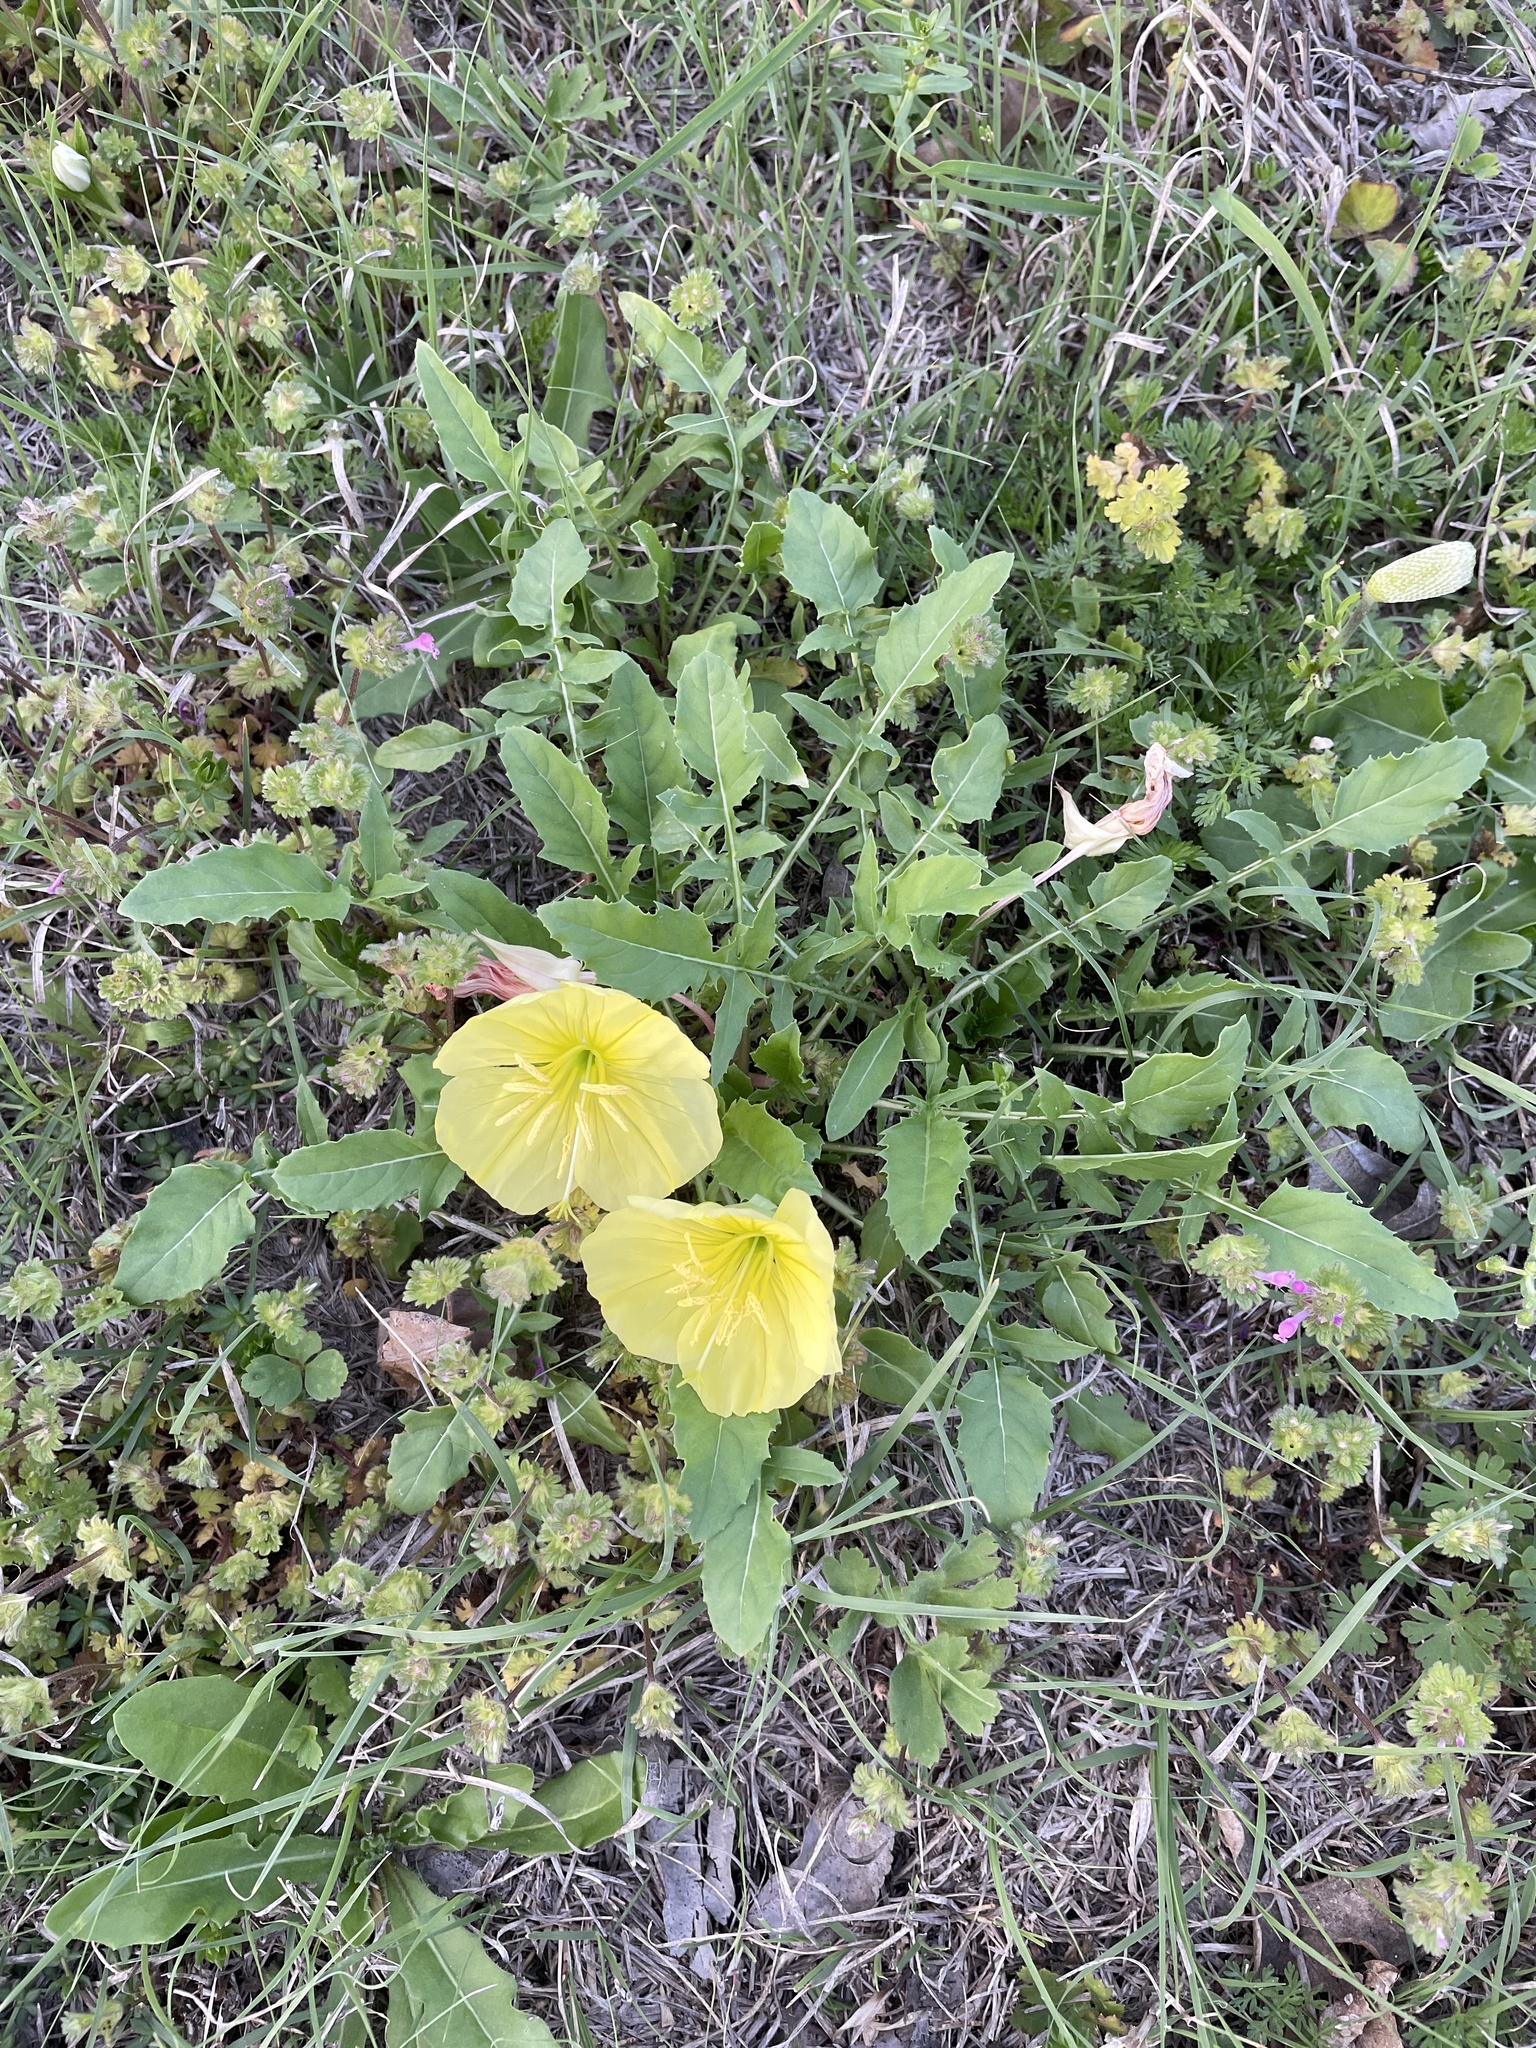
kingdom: Plantae
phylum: Tracheophyta
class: Magnoliopsida
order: Myrtales
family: Onagraceae
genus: Oenothera
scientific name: Oenothera triloba
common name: Sessile evening-primrose
